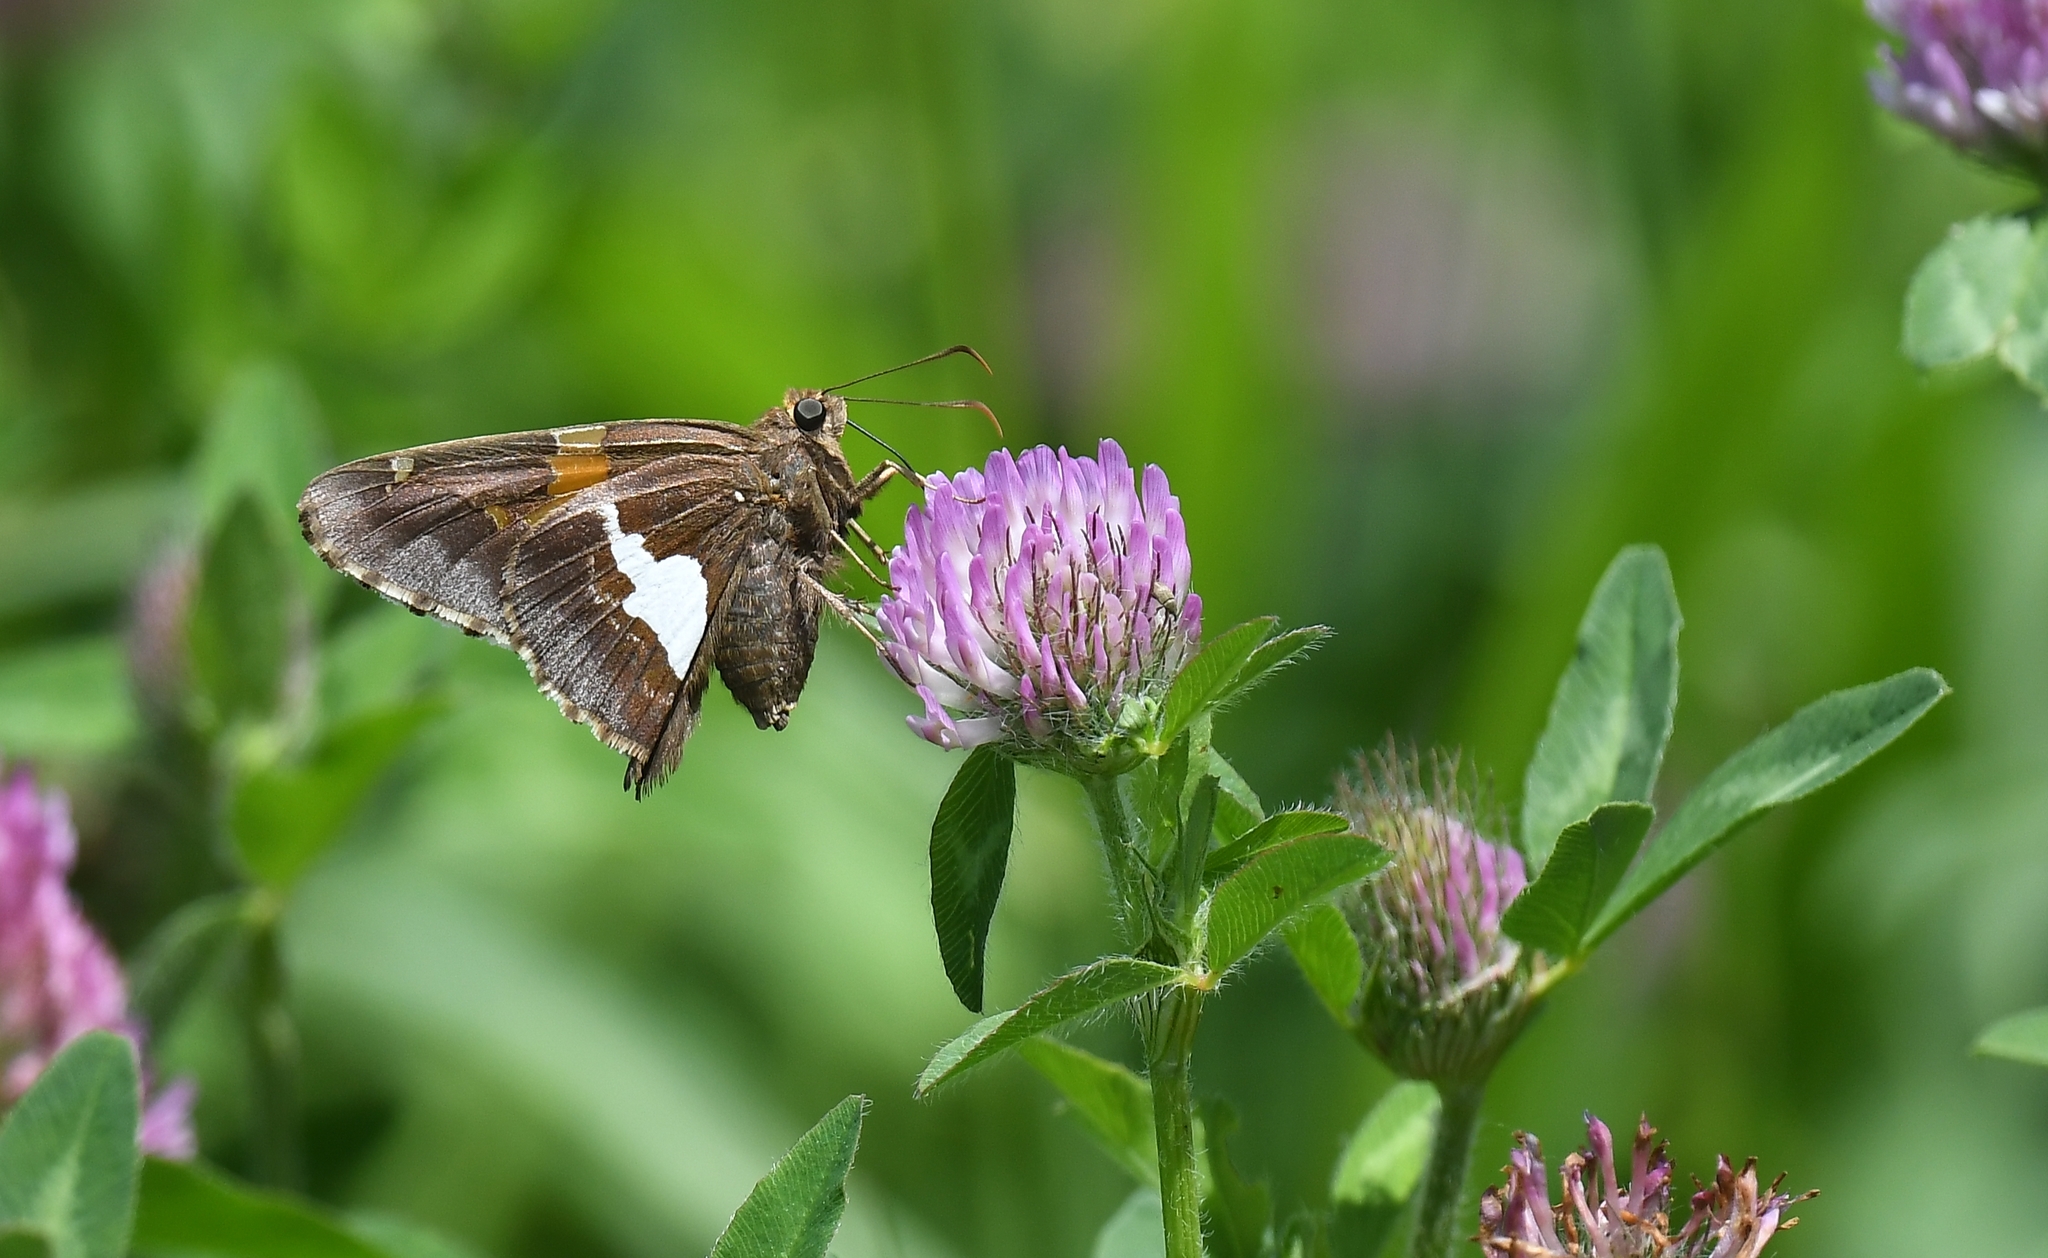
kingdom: Animalia
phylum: Arthropoda
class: Insecta
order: Lepidoptera
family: Hesperiidae
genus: Epargyreus
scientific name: Epargyreus clarus
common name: Silver-spotted skipper
